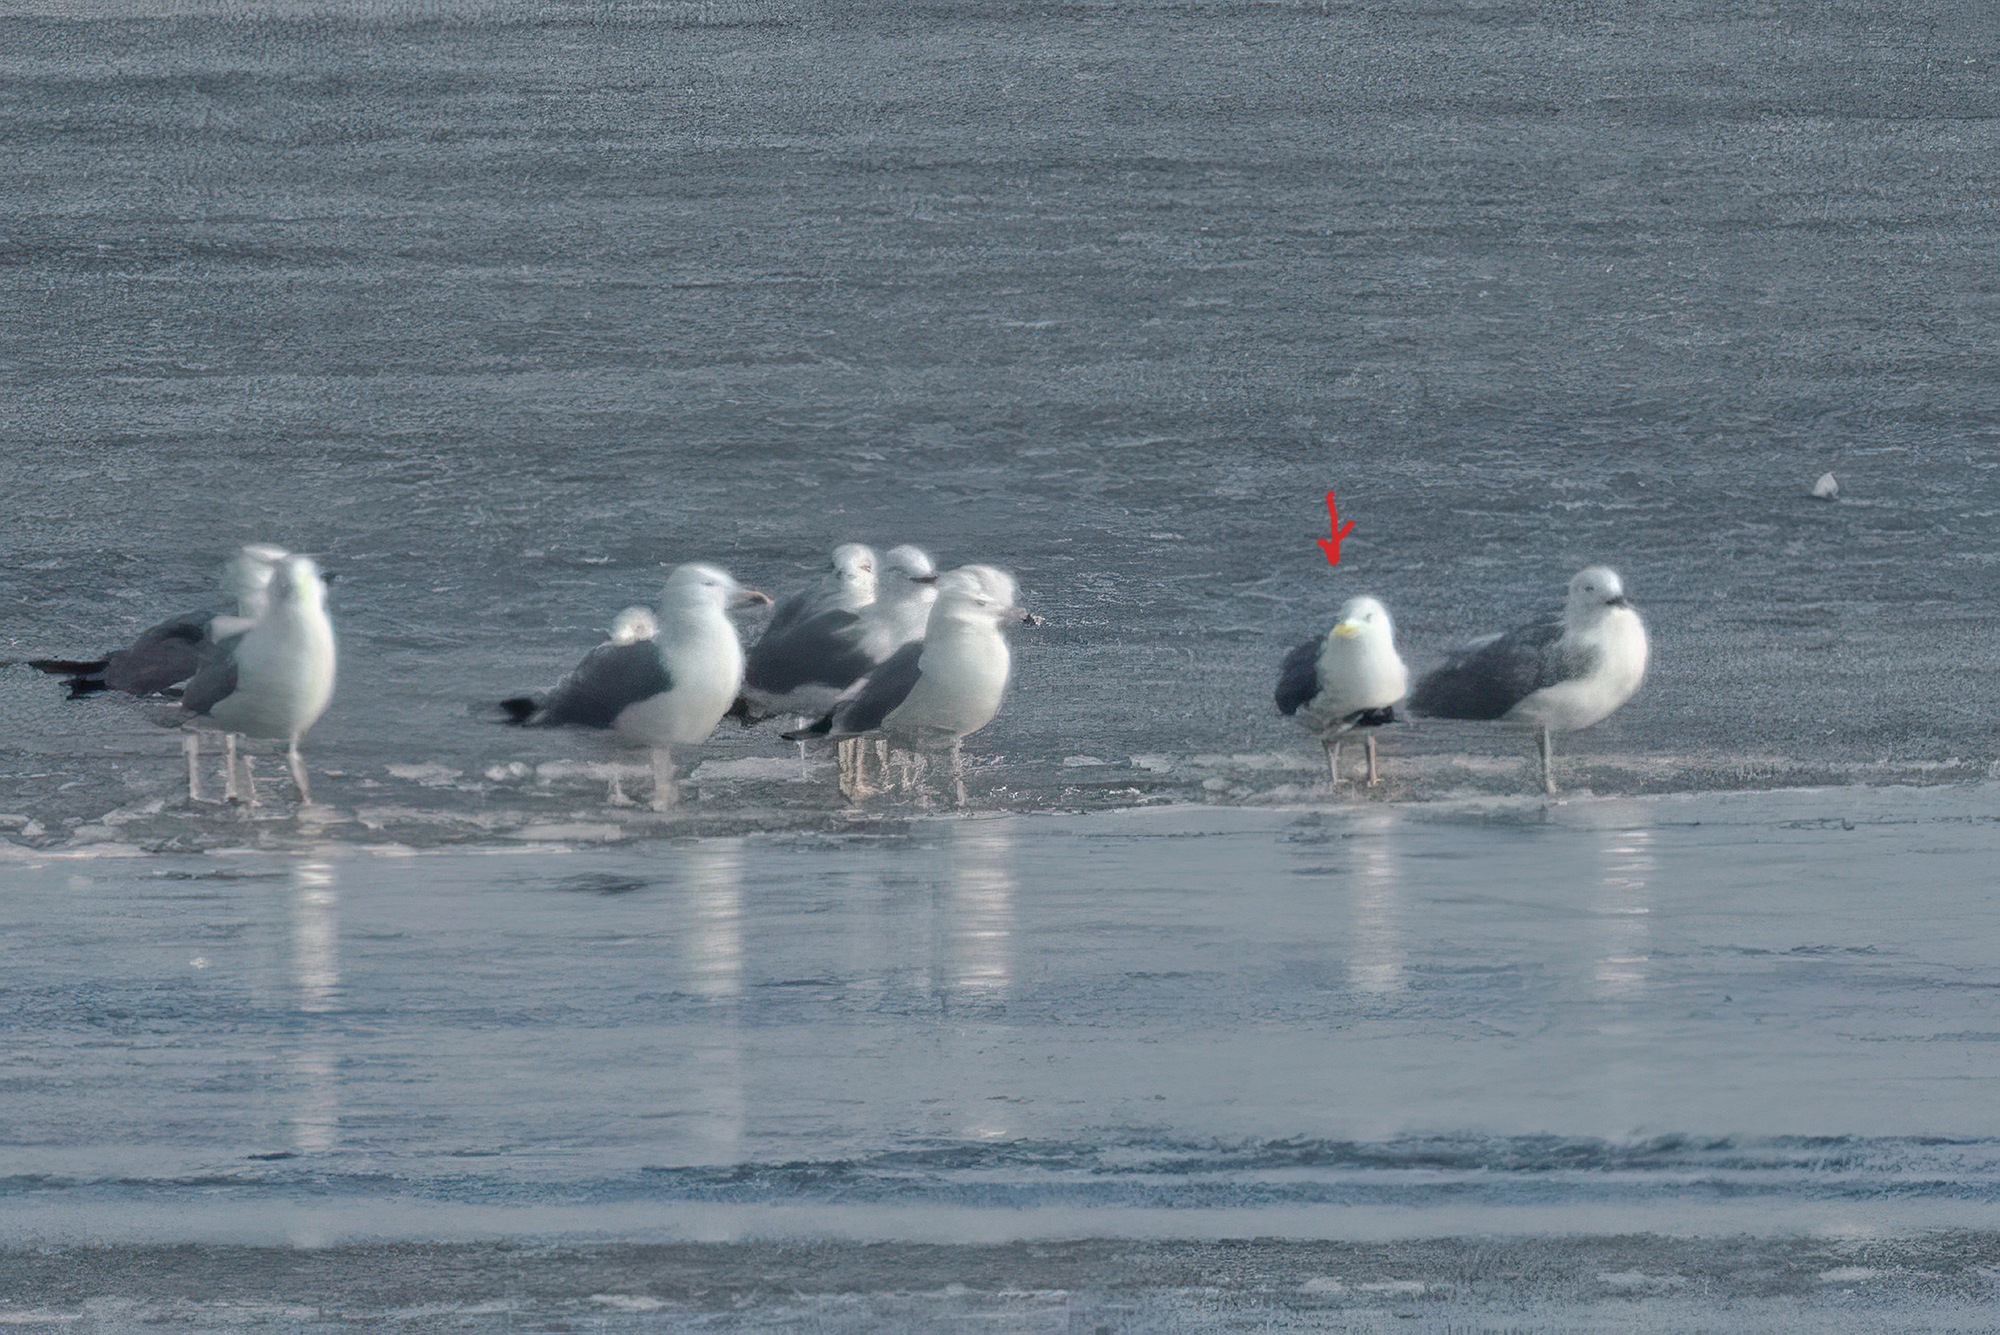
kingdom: Animalia
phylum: Chordata
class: Aves
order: Charadriiformes
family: Laridae
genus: Larus
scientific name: Larus cachinnans
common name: Caspian gull
